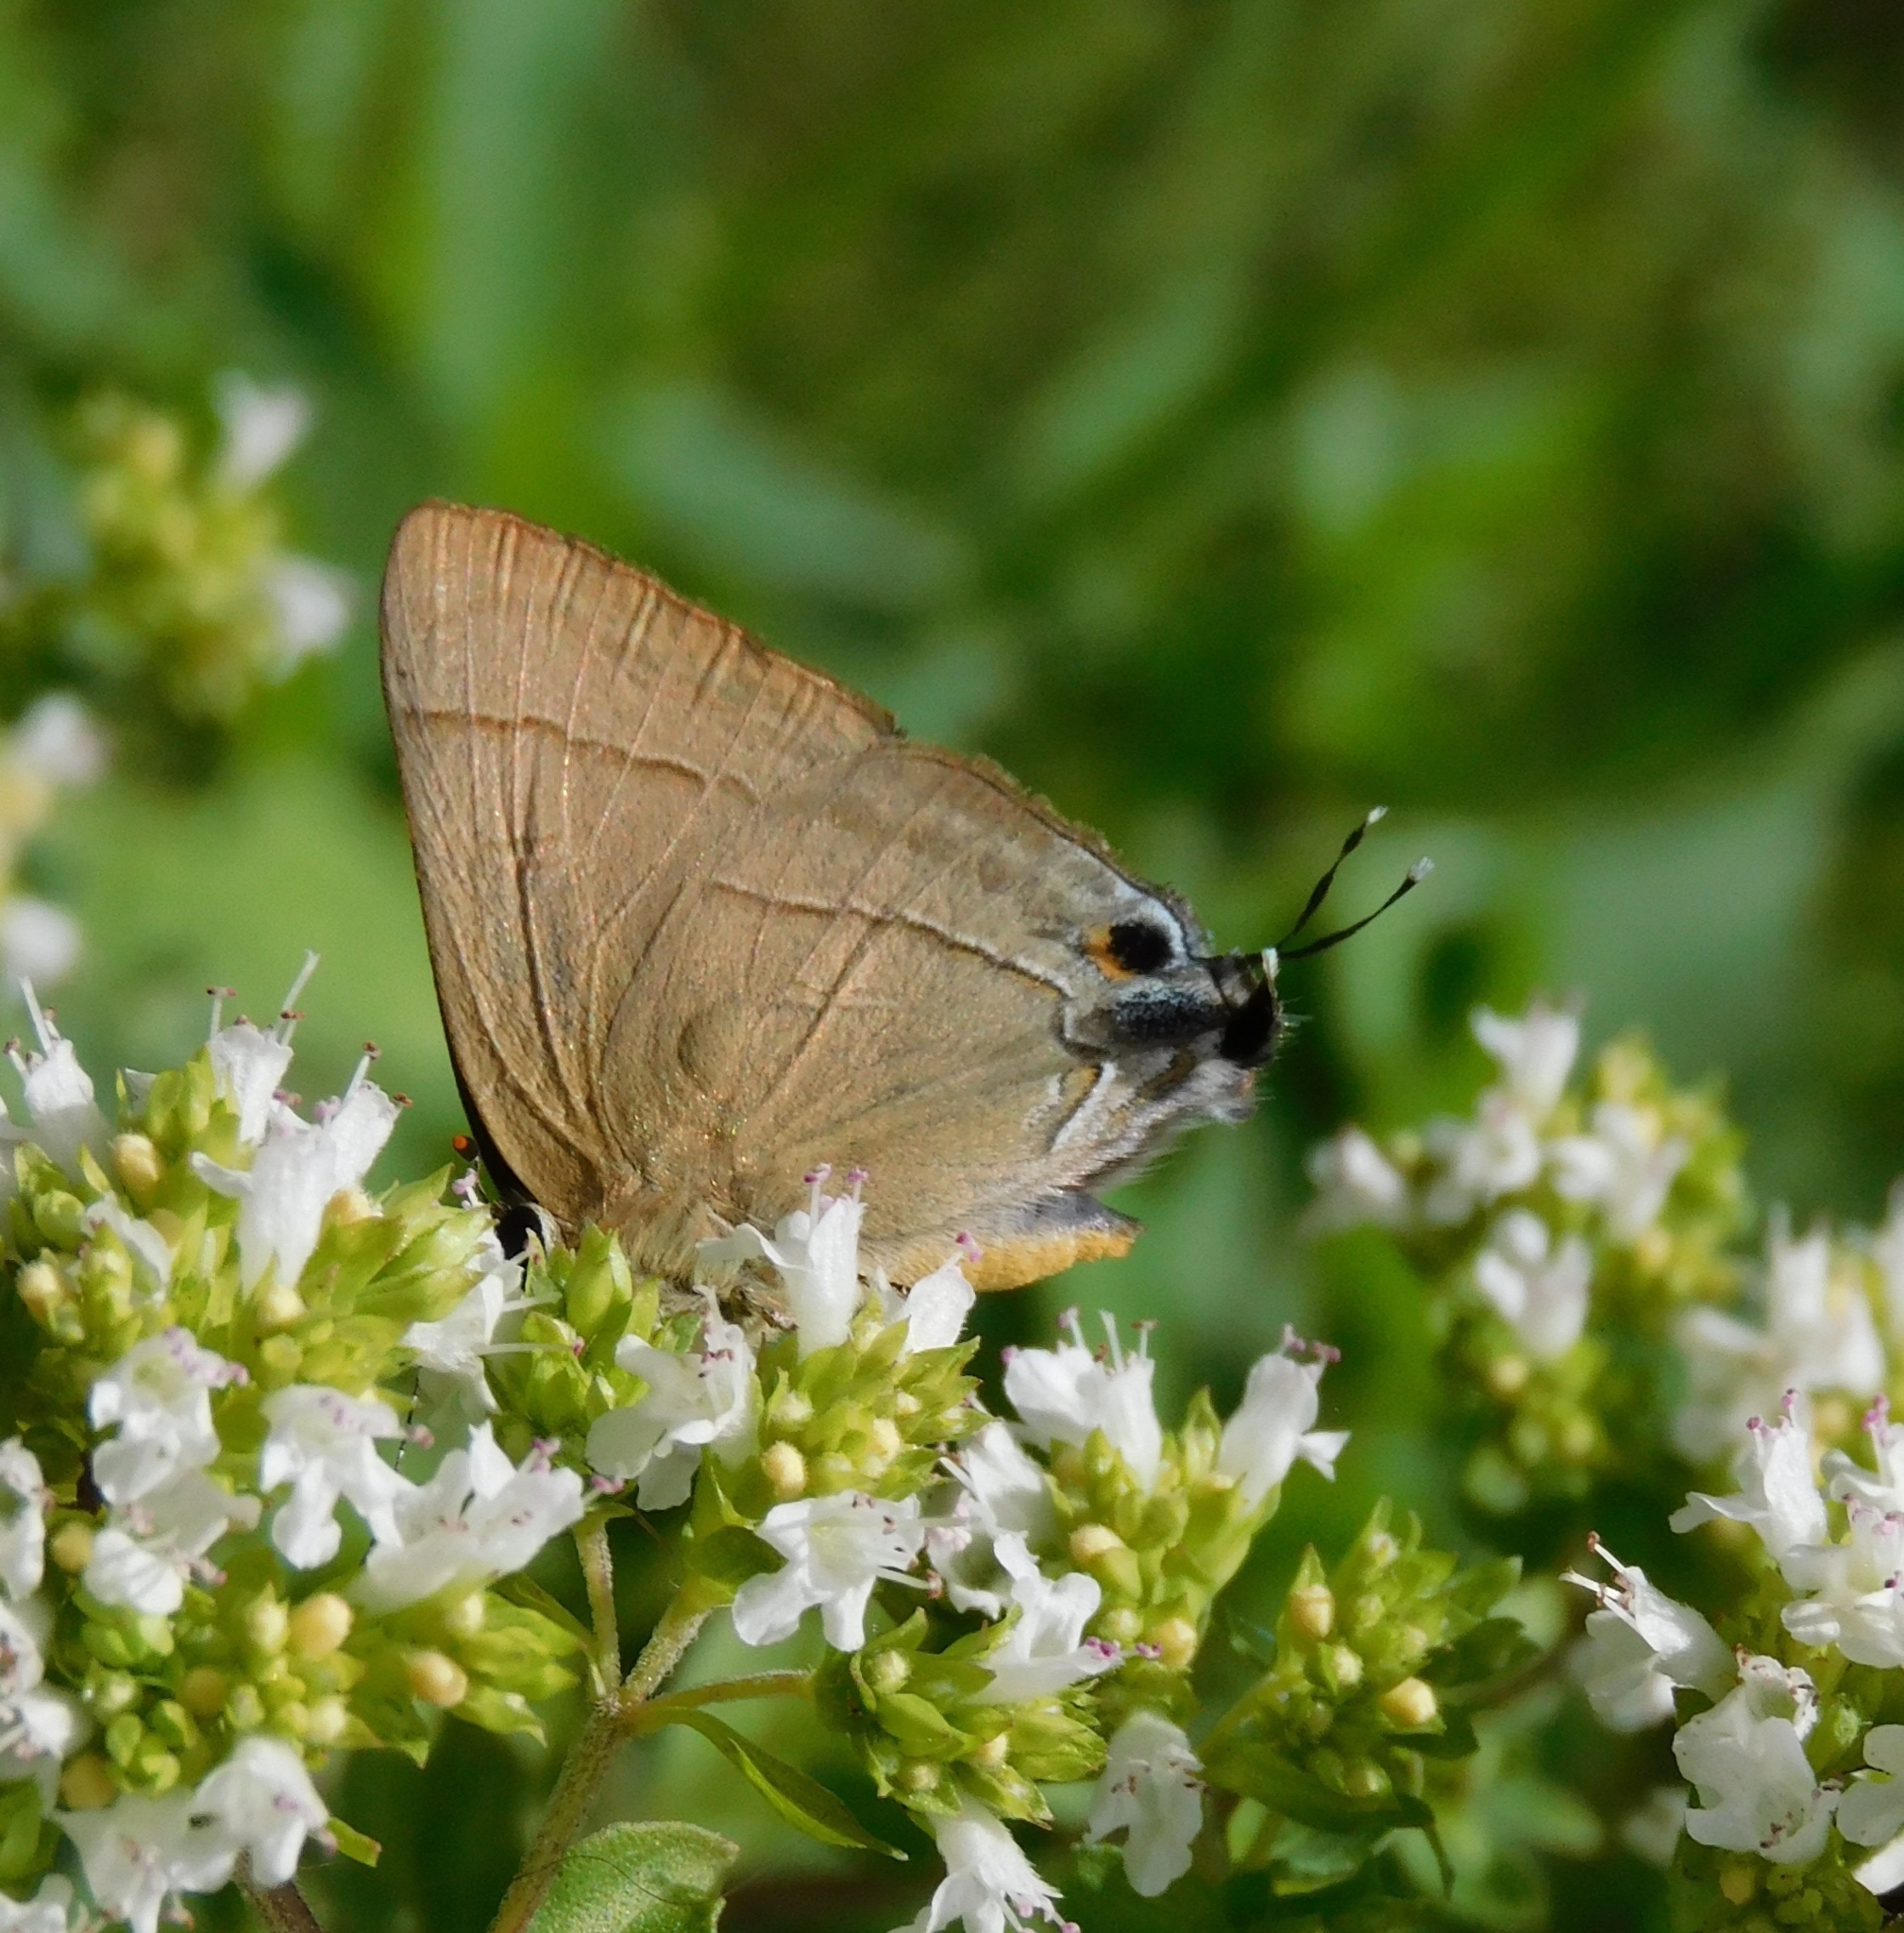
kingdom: Animalia
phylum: Arthropoda
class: Insecta
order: Lepidoptera
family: Lycaenidae
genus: Rapala
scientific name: Rapala nissa
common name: Common flash
